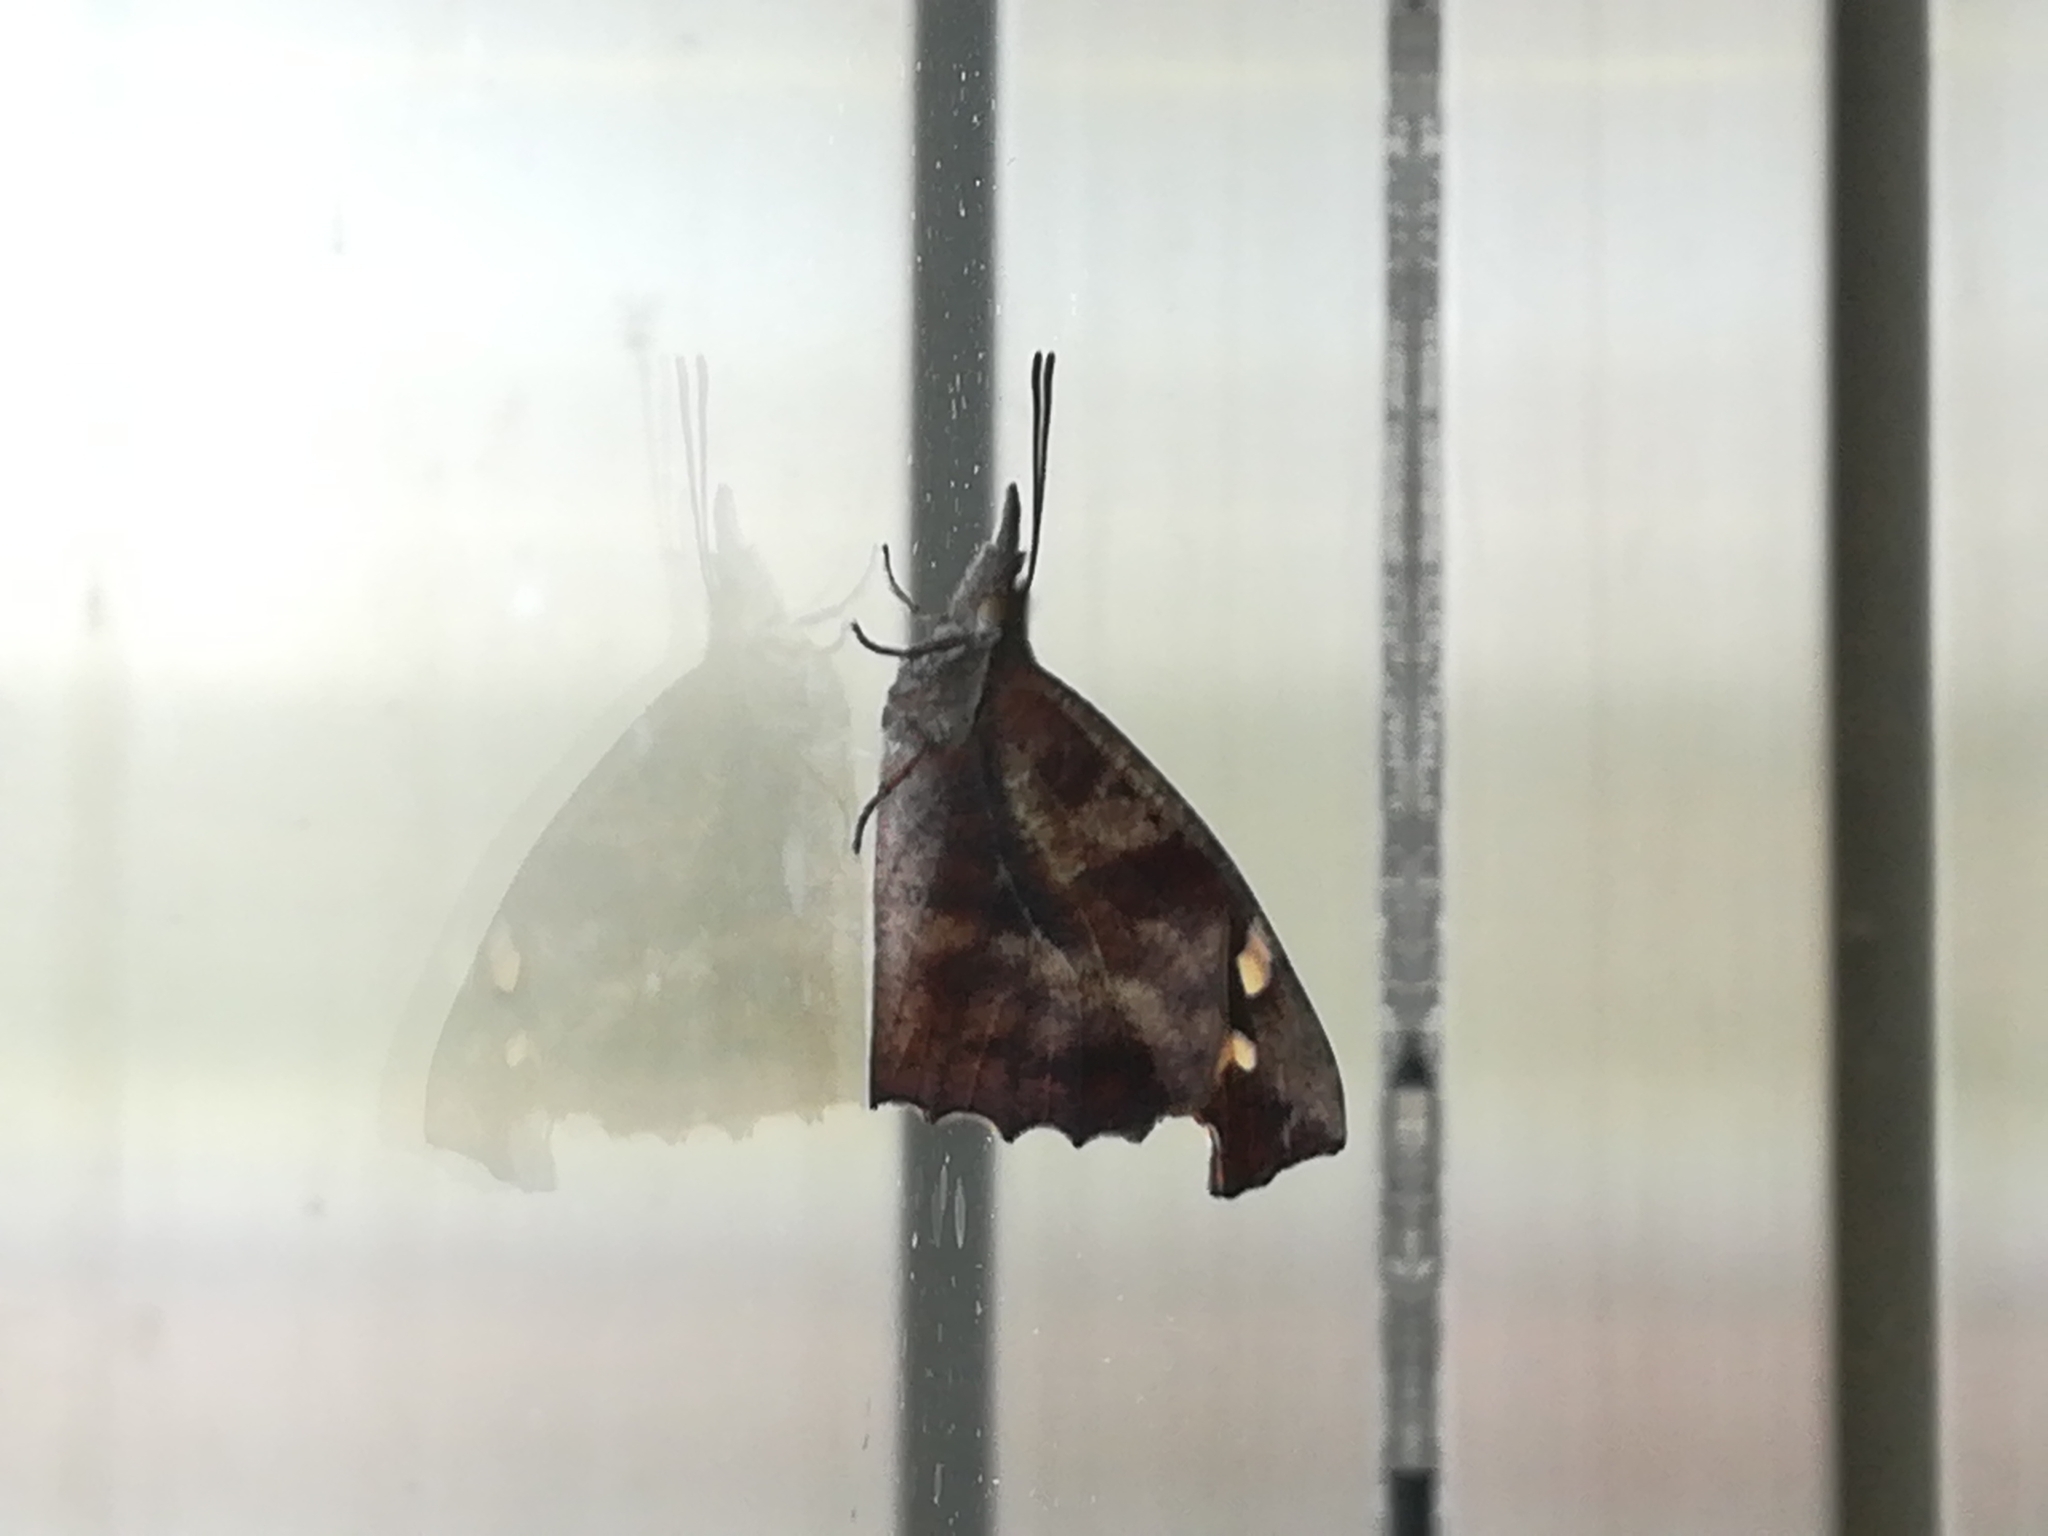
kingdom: Animalia
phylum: Arthropoda
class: Insecta
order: Lepidoptera
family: Nymphalidae
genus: Libythea
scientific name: Libythea lepita
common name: Common beak
